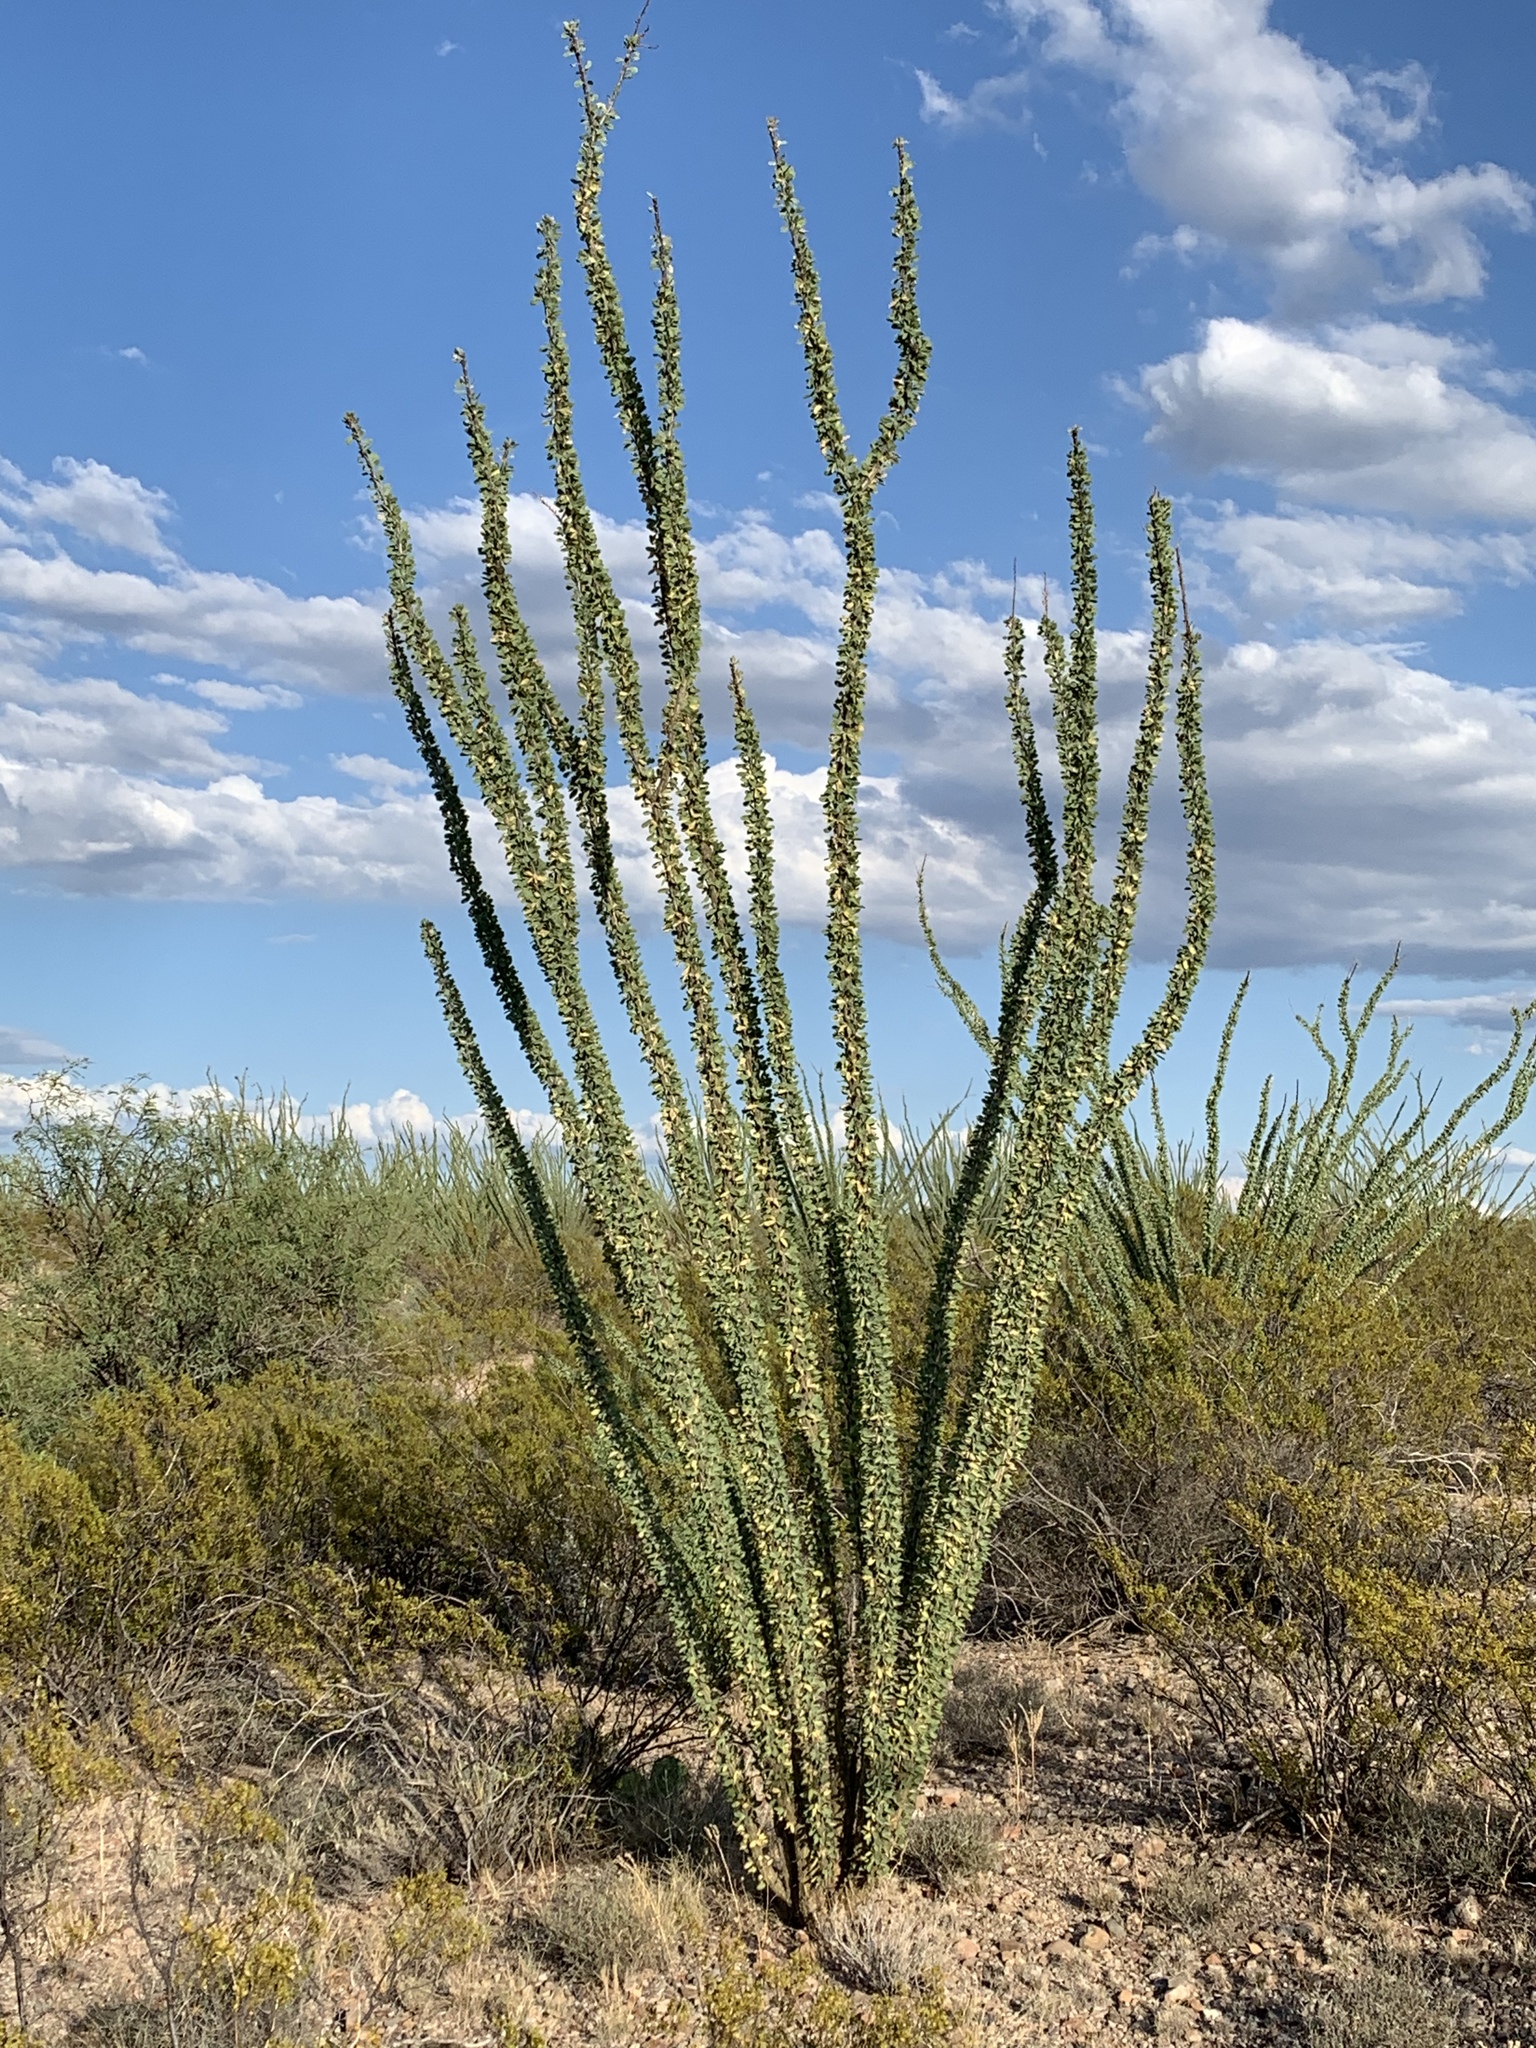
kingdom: Plantae
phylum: Tracheophyta
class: Magnoliopsida
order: Ericales
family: Fouquieriaceae
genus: Fouquieria
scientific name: Fouquieria splendens
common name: Vine-cactus
